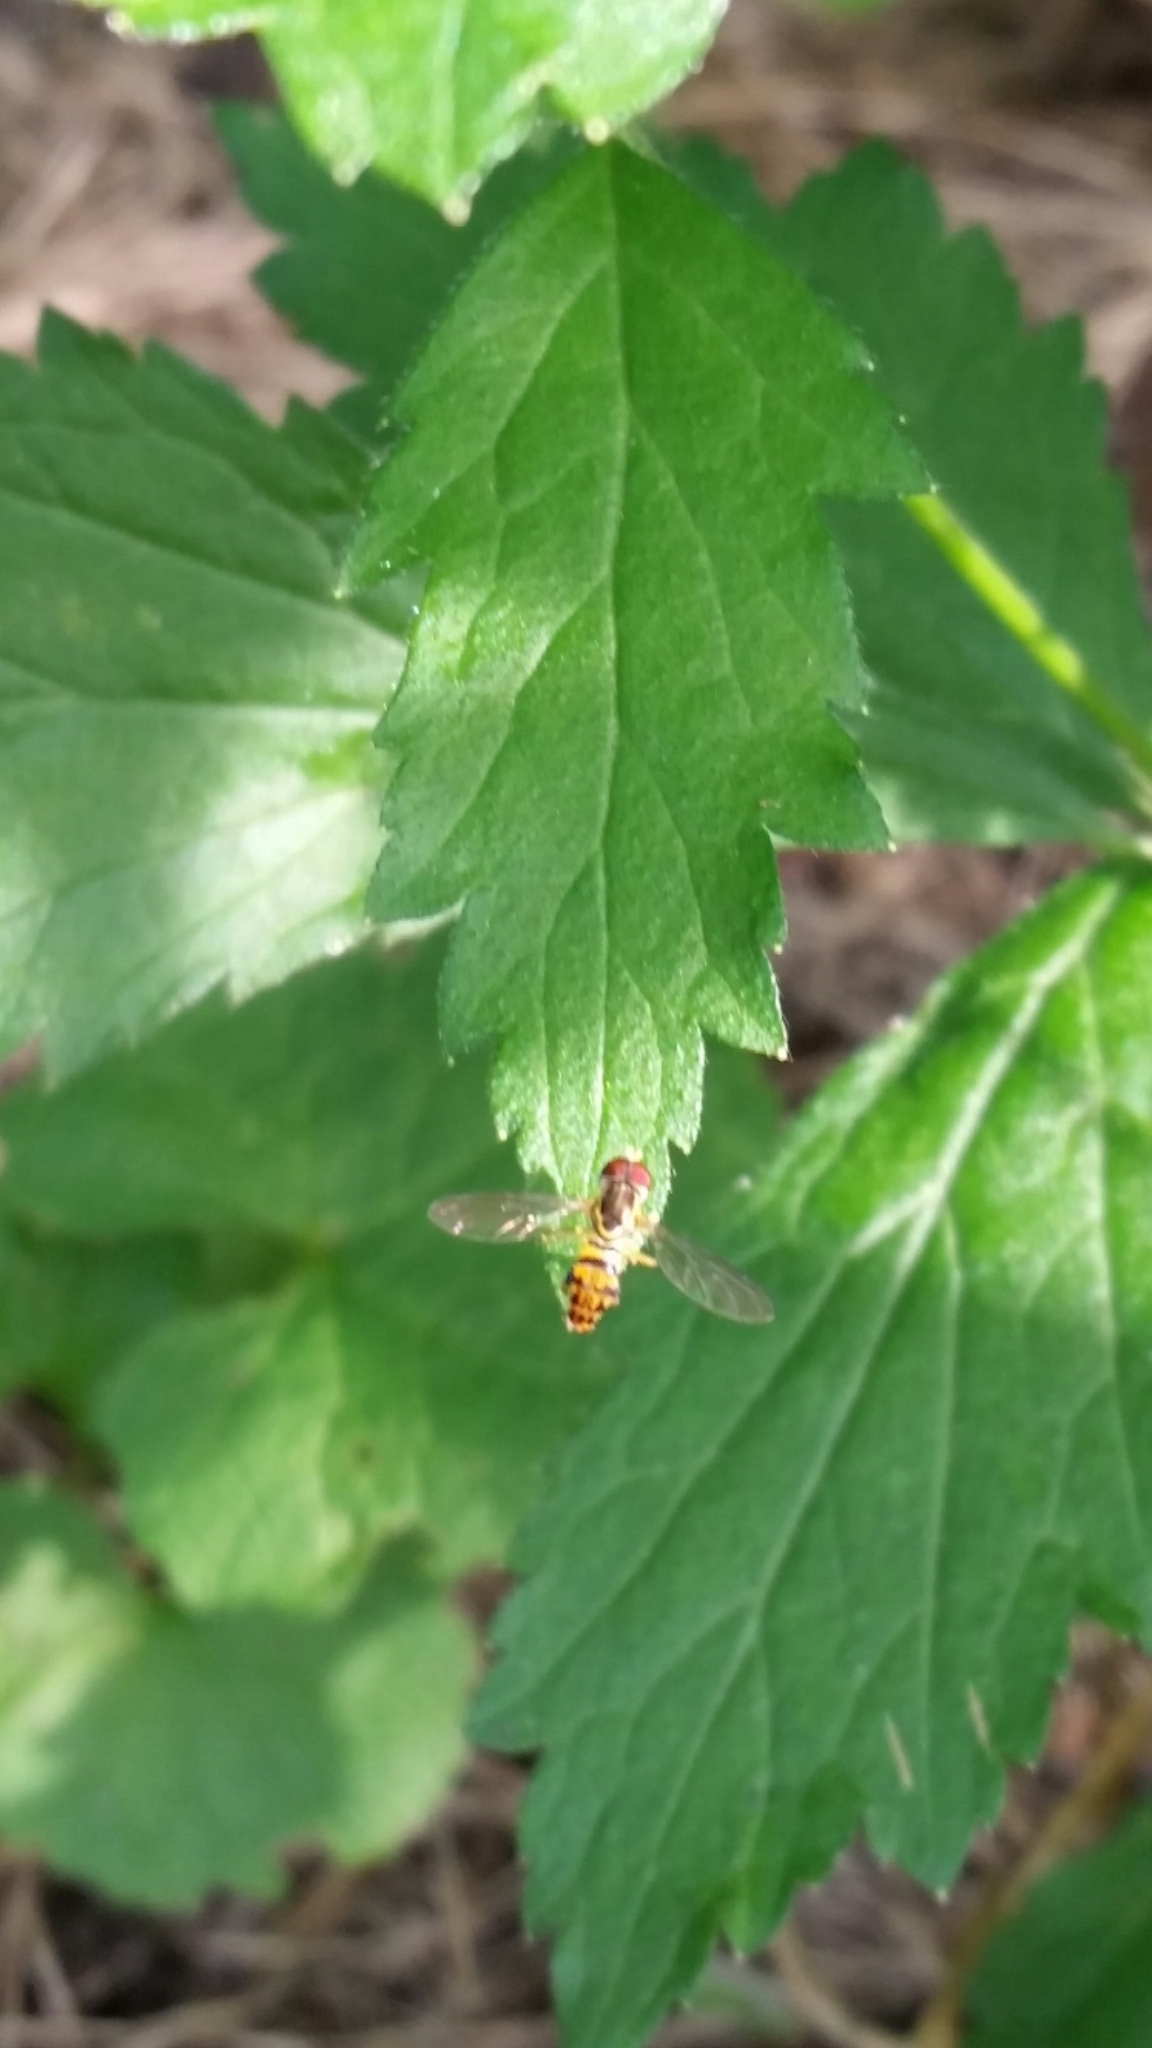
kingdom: Animalia
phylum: Arthropoda
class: Insecta
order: Diptera
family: Syrphidae
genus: Toxomerus
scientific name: Toxomerus geminatus
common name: Eastern calligrapher
